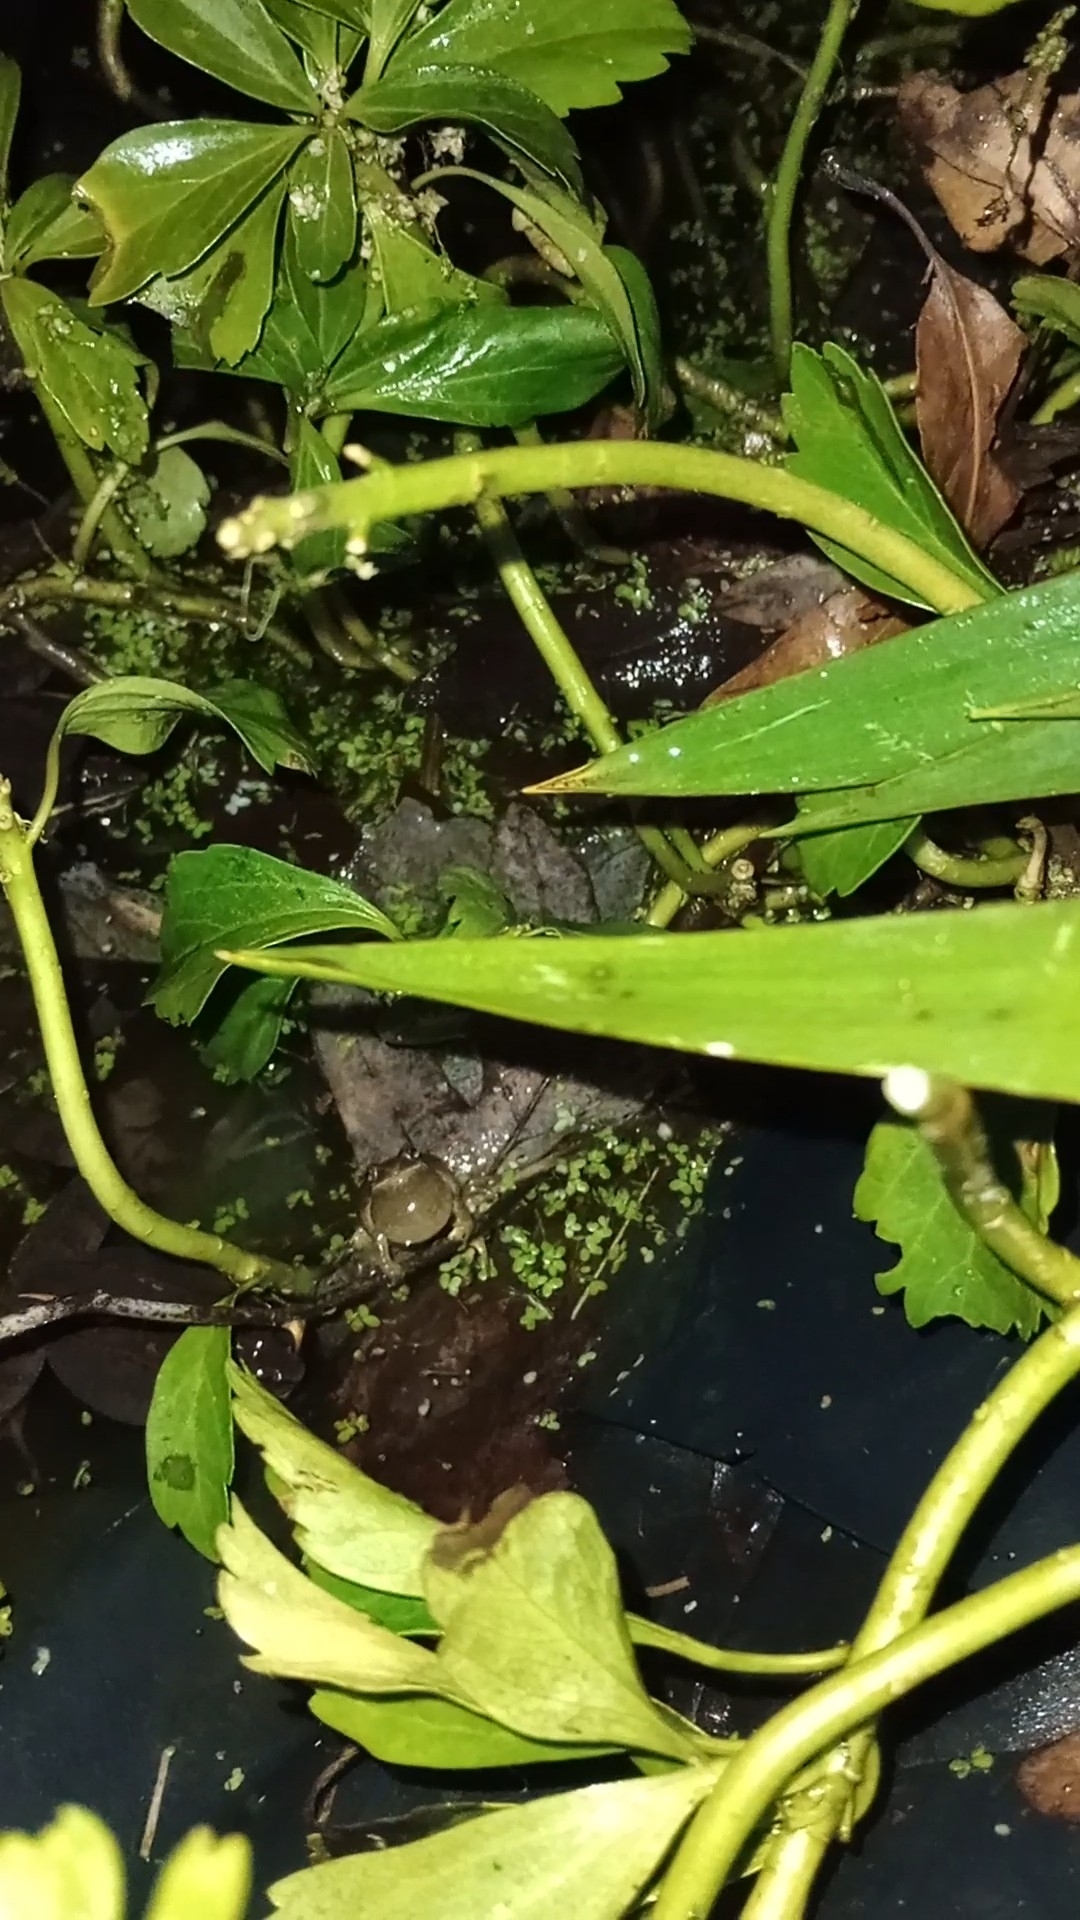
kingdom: Animalia
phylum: Chordata
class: Amphibia
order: Anura
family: Hylidae
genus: Pseudacris
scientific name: Pseudacris crucifer
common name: Spring peeper
